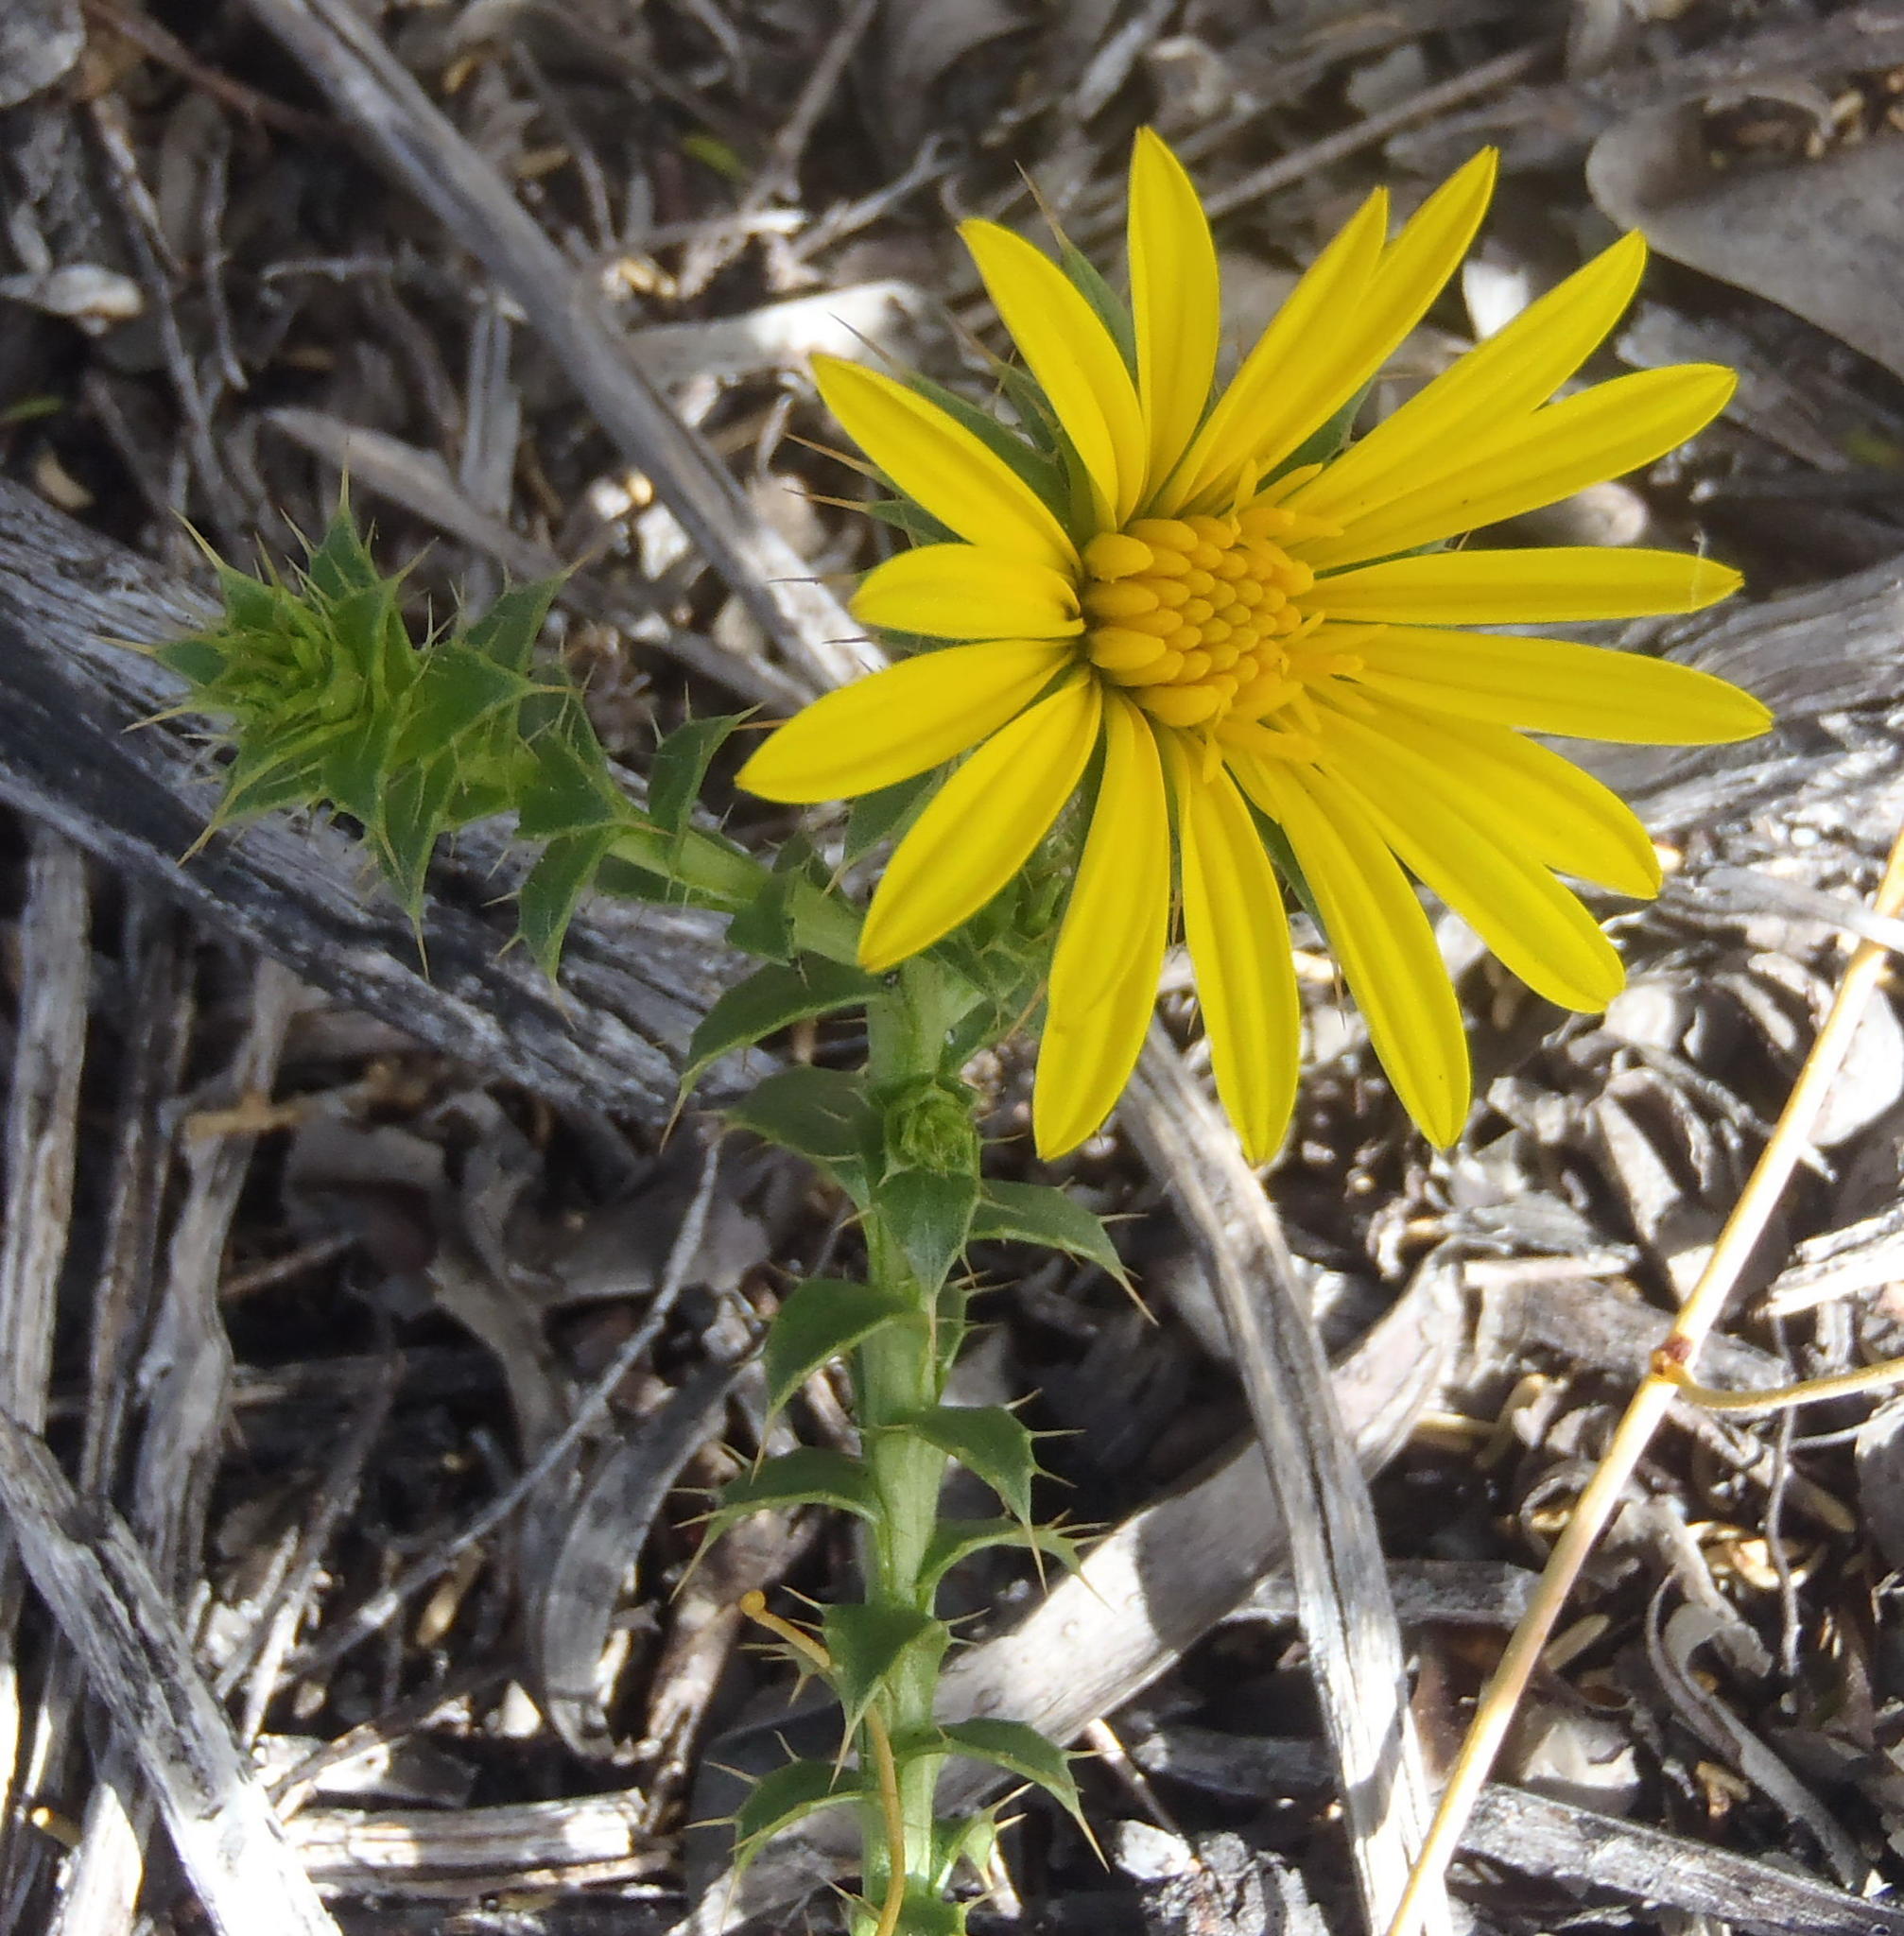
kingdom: Plantae
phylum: Tracheophyta
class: Magnoliopsida
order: Asterales
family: Asteraceae
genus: Cullumia
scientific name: Cullumia setosa
